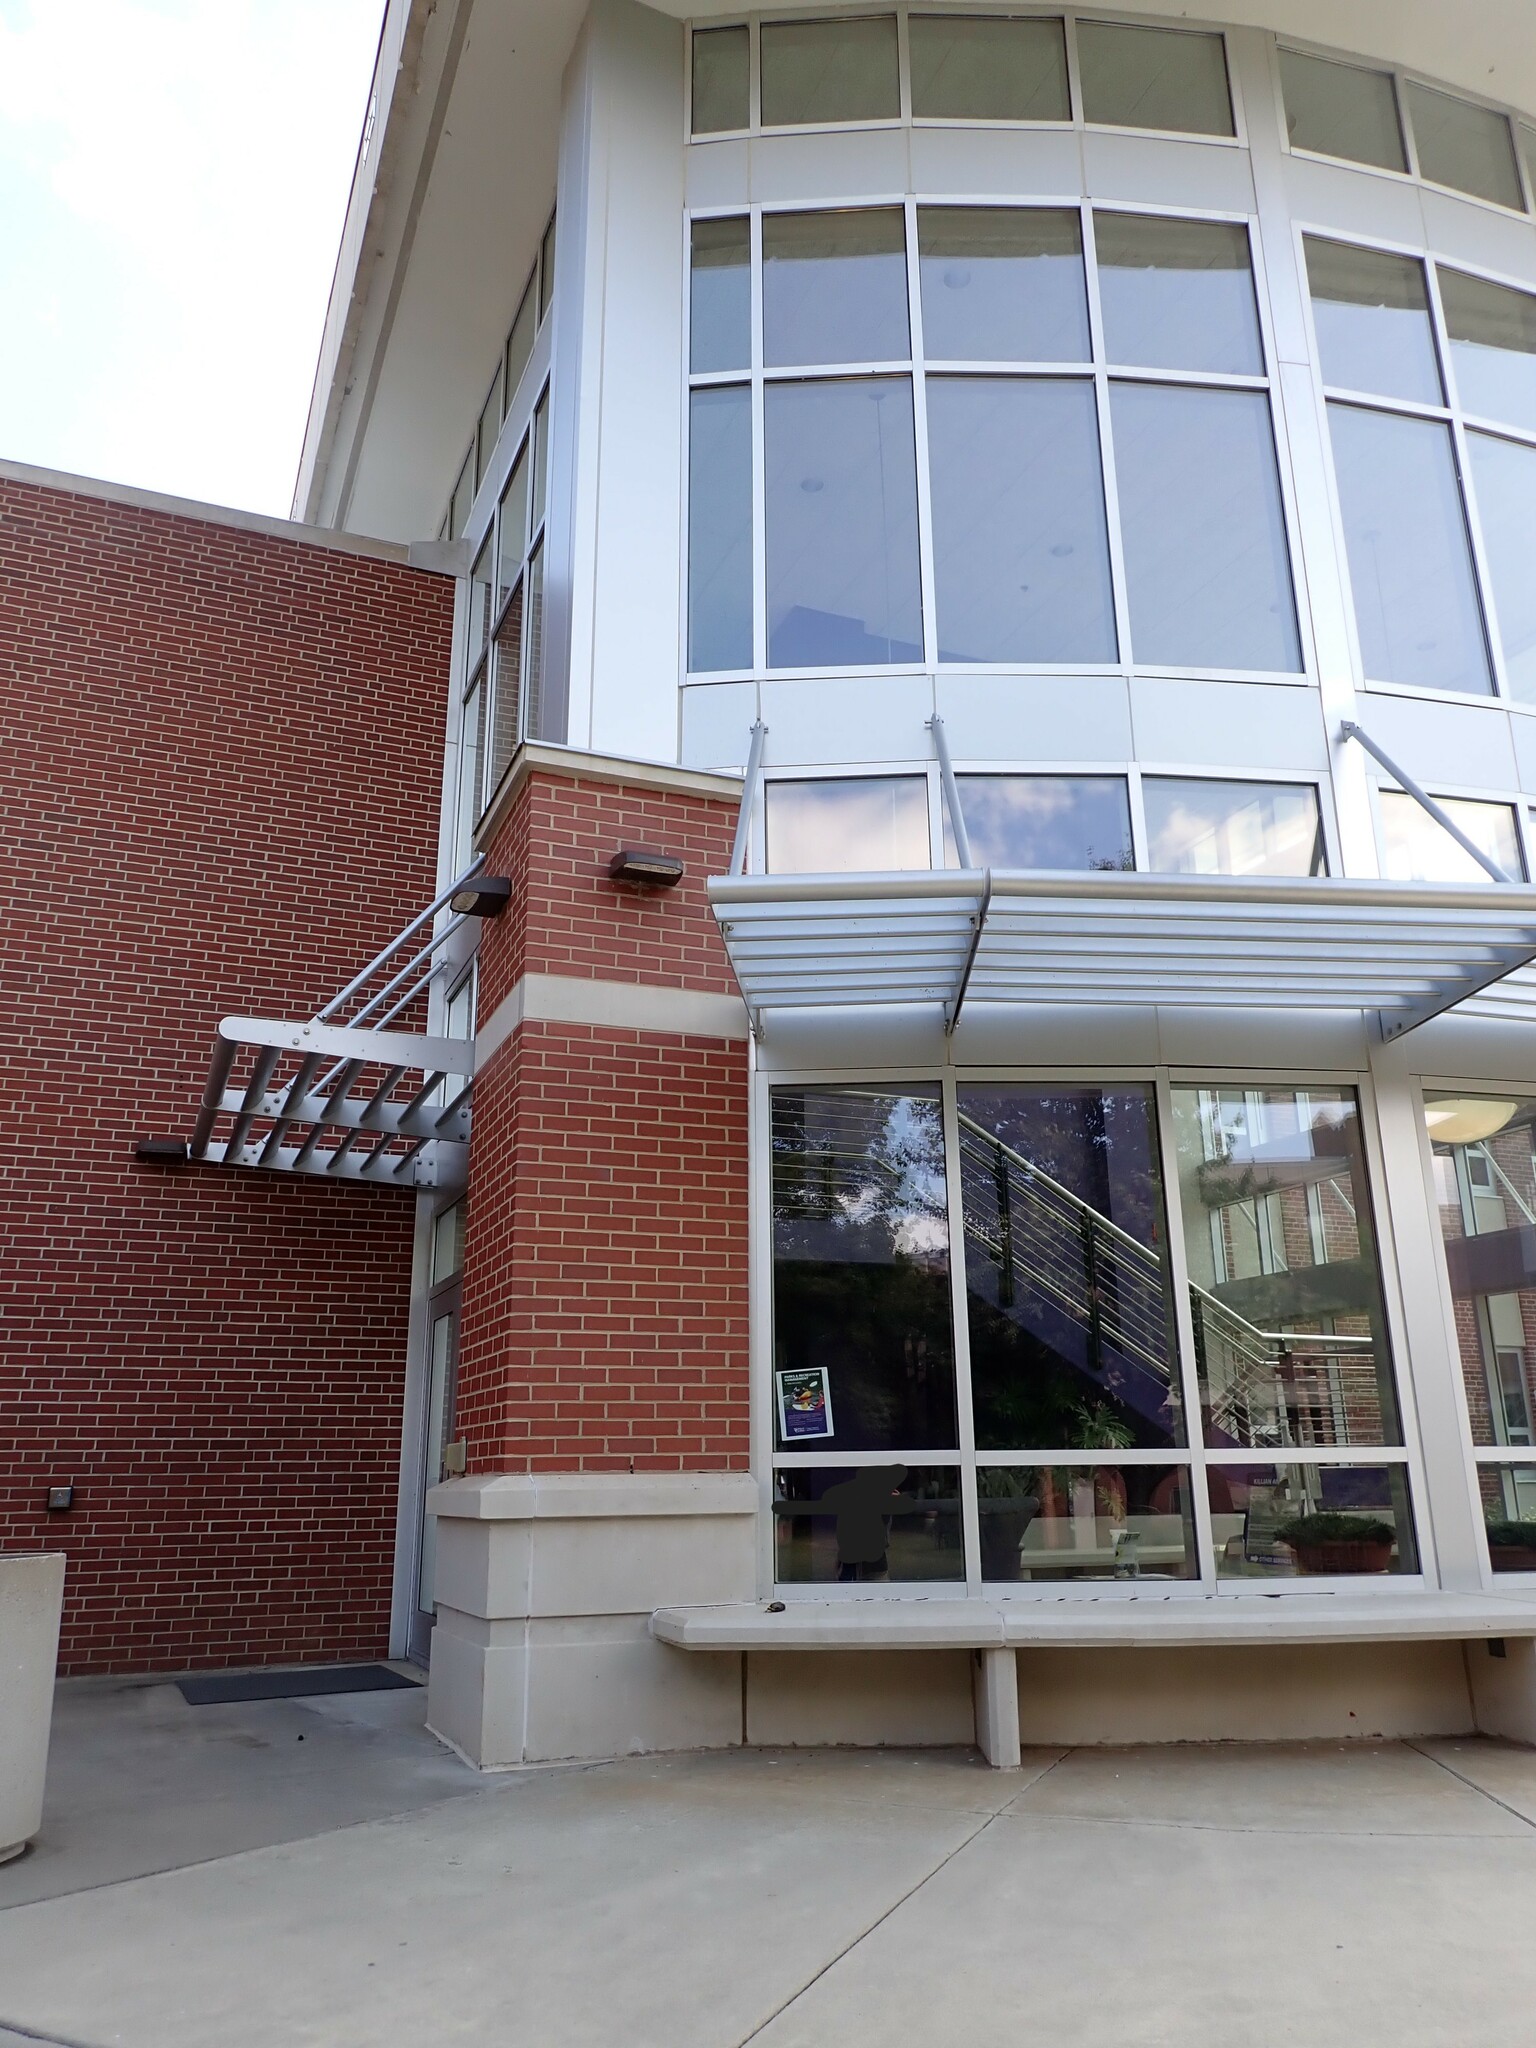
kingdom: Animalia
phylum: Chordata
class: Aves
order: Apodiformes
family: Trochilidae
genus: Archilochus
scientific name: Archilochus colubris
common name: Ruby-throated hummingbird
